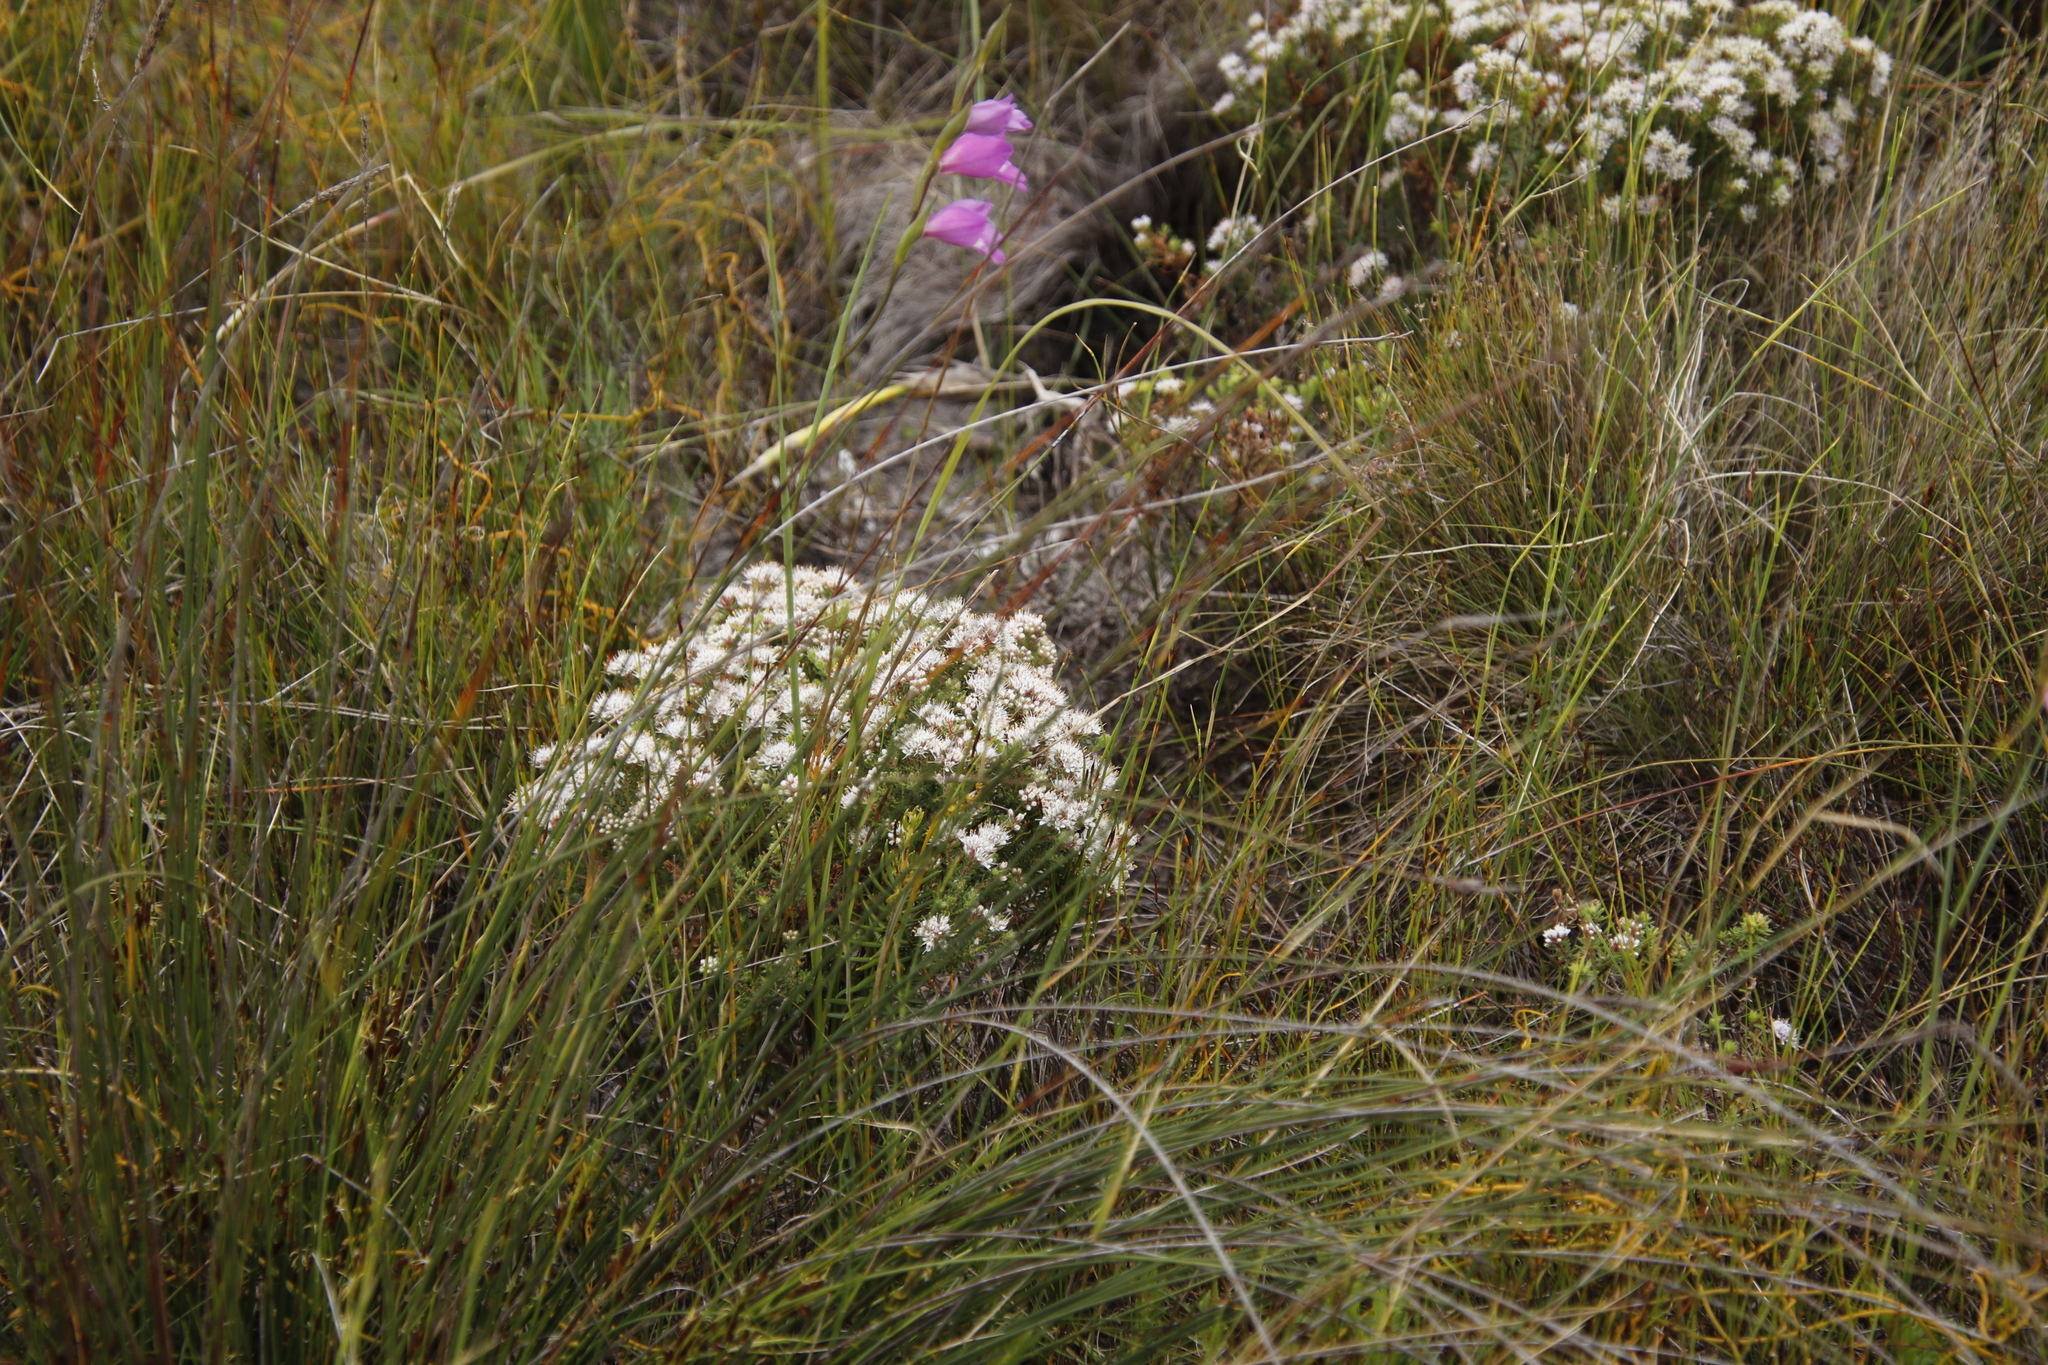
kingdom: Plantae
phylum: Tracheophyta
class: Liliopsida
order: Asparagales
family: Iridaceae
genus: Gladiolus
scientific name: Gladiolus carinatus
